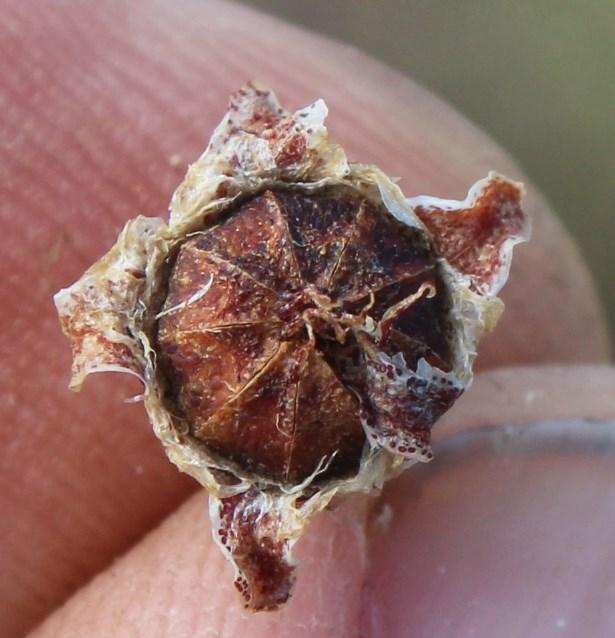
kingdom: Plantae
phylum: Tracheophyta
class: Magnoliopsida
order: Caryophyllales
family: Aizoaceae
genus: Leipoldtia
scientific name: Leipoldtia schultzei
